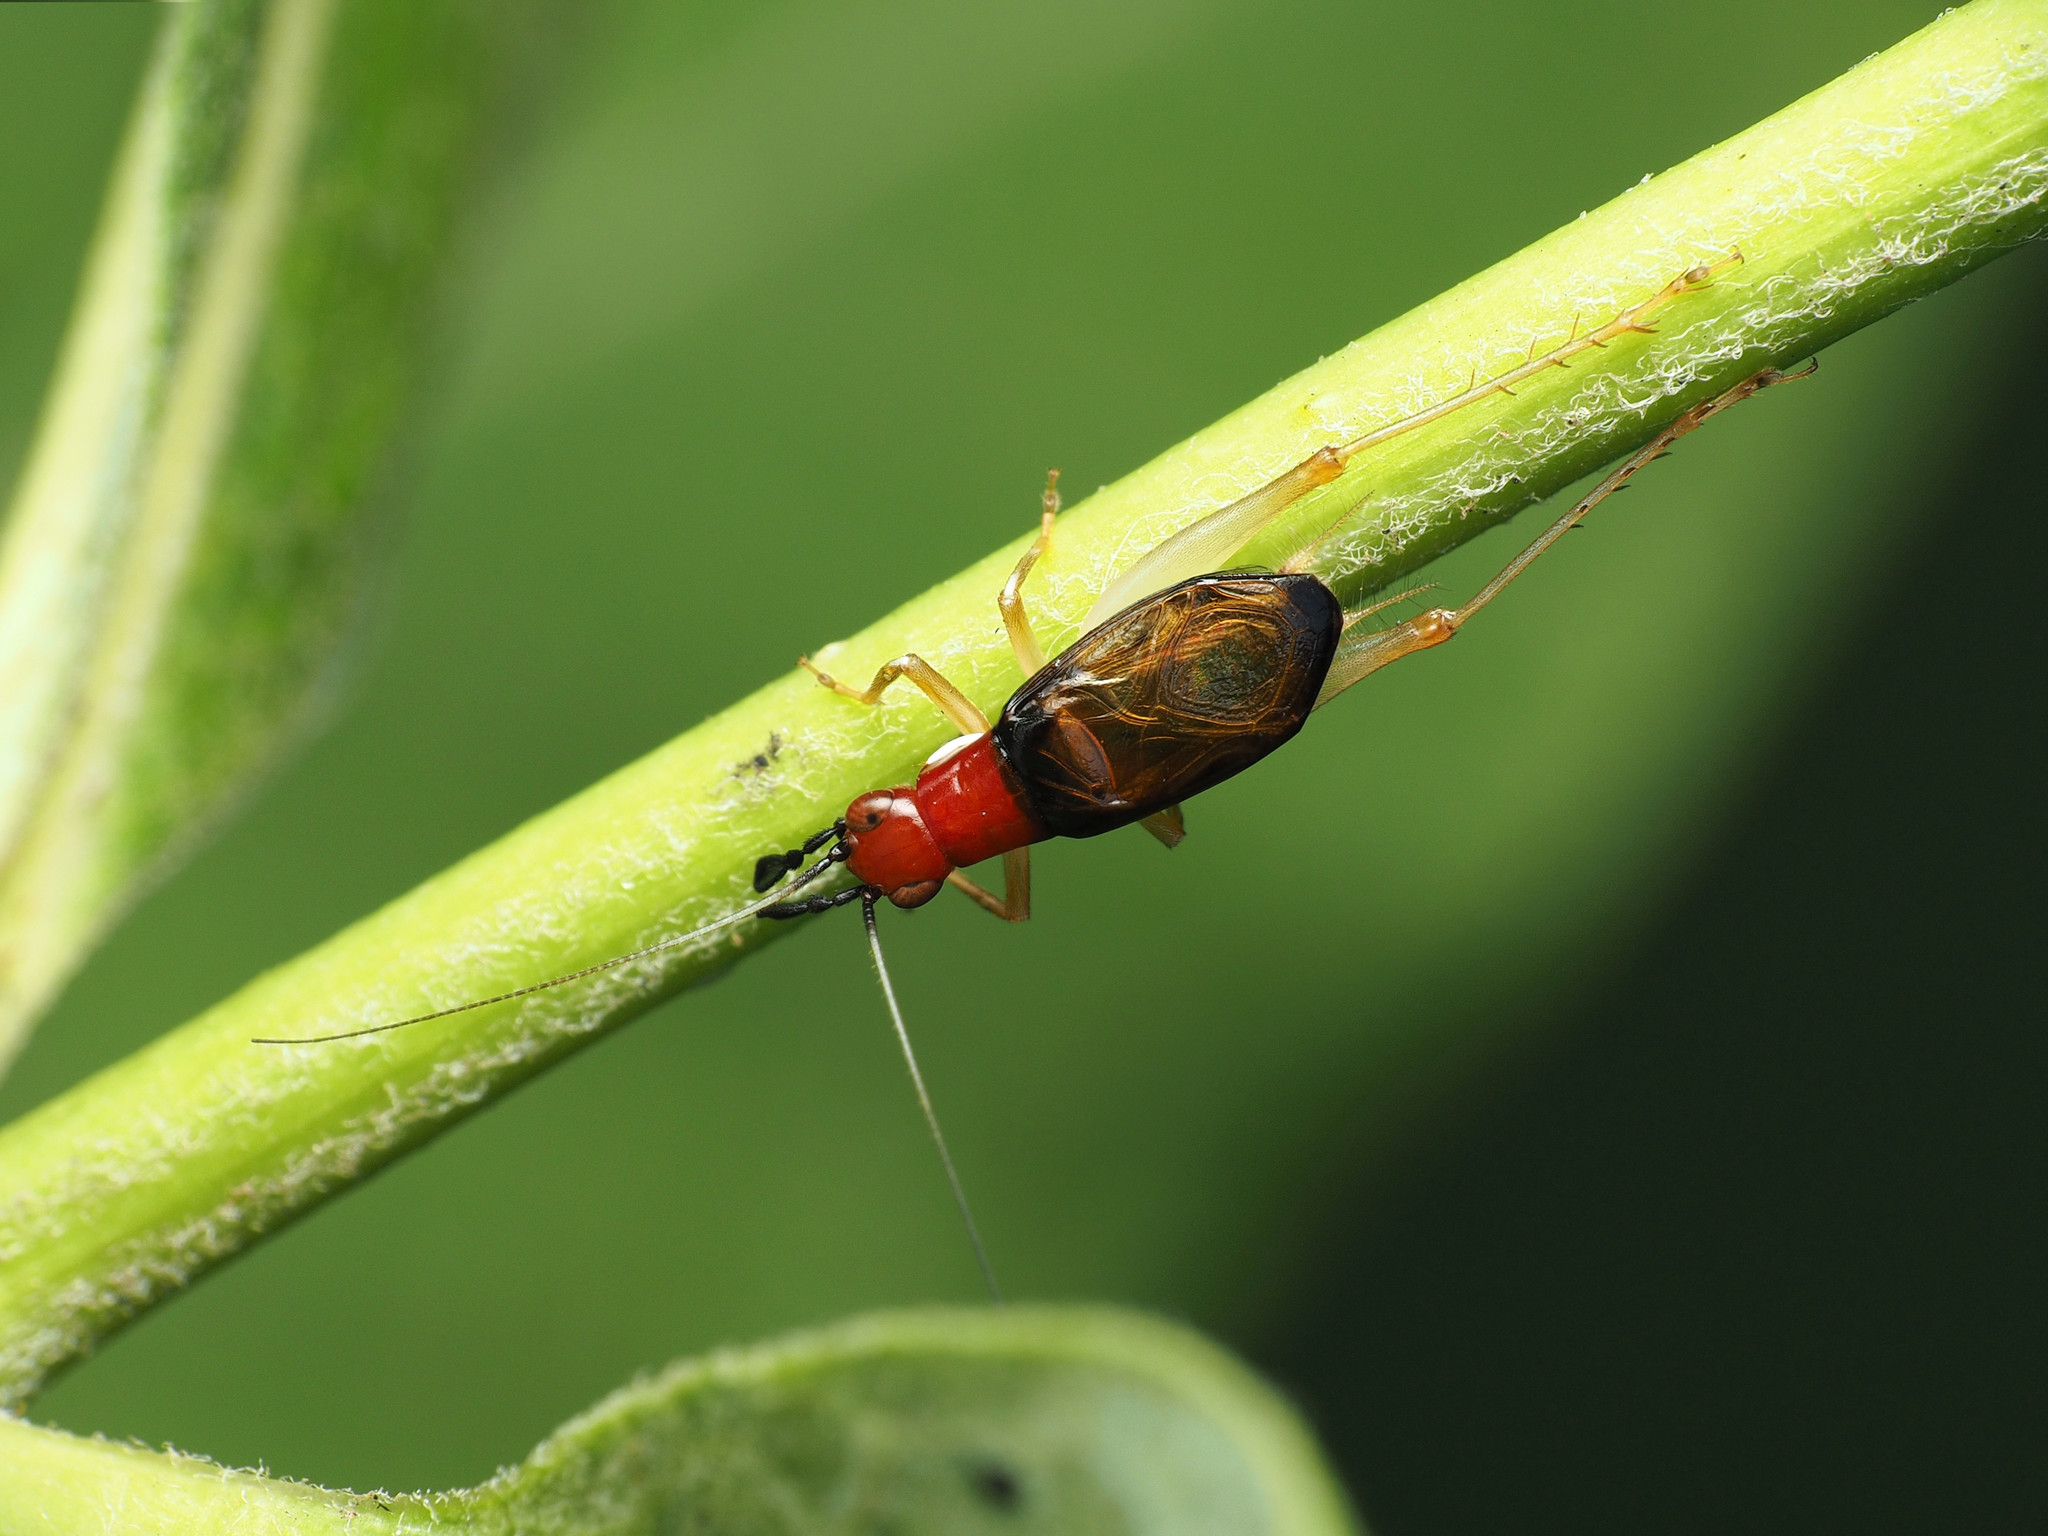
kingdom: Animalia
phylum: Arthropoda
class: Insecta
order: Orthoptera
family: Trigonidiidae
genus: Phyllopalpus
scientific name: Phyllopalpus pulchellus
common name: Handsome trig
